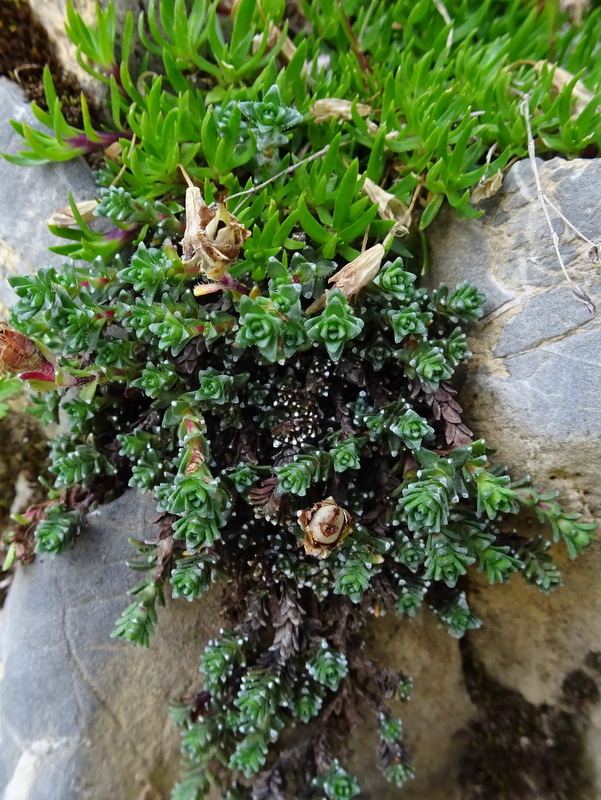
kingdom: Plantae
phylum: Tracheophyta
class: Magnoliopsida
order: Saxifragales
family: Saxifragaceae
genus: Saxifraga
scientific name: Saxifraga oppositifolia
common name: Purple saxifrage
